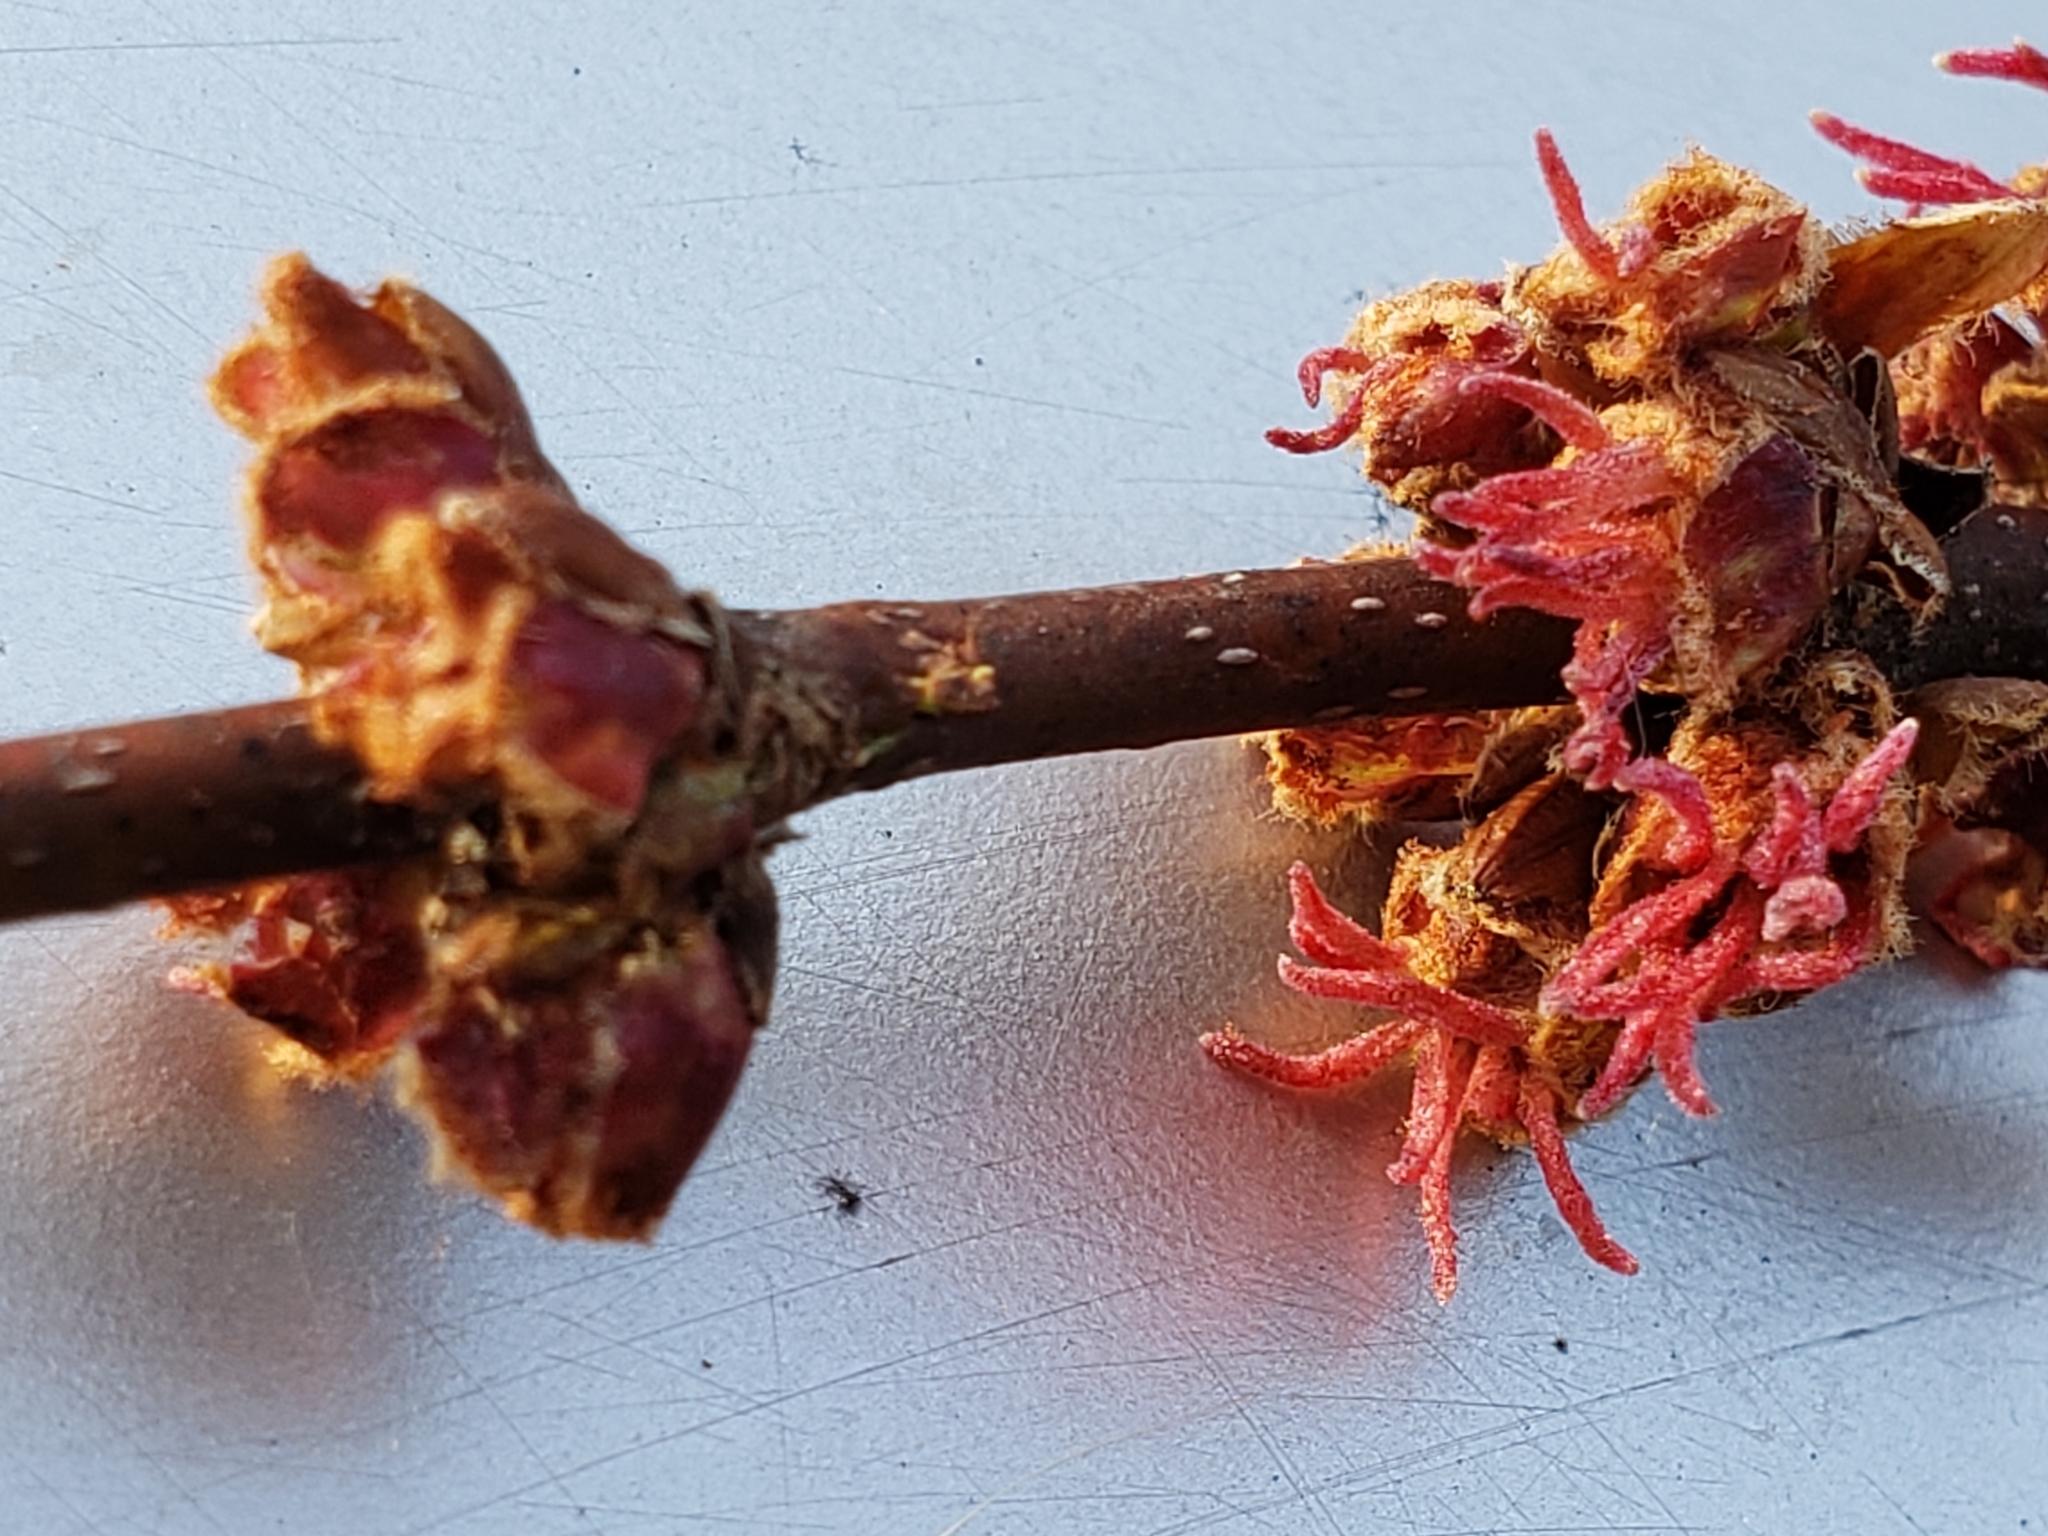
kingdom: Plantae
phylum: Tracheophyta
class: Magnoliopsida
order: Sapindales
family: Sapindaceae
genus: Acer
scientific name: Acer rubrum
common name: Red maple
